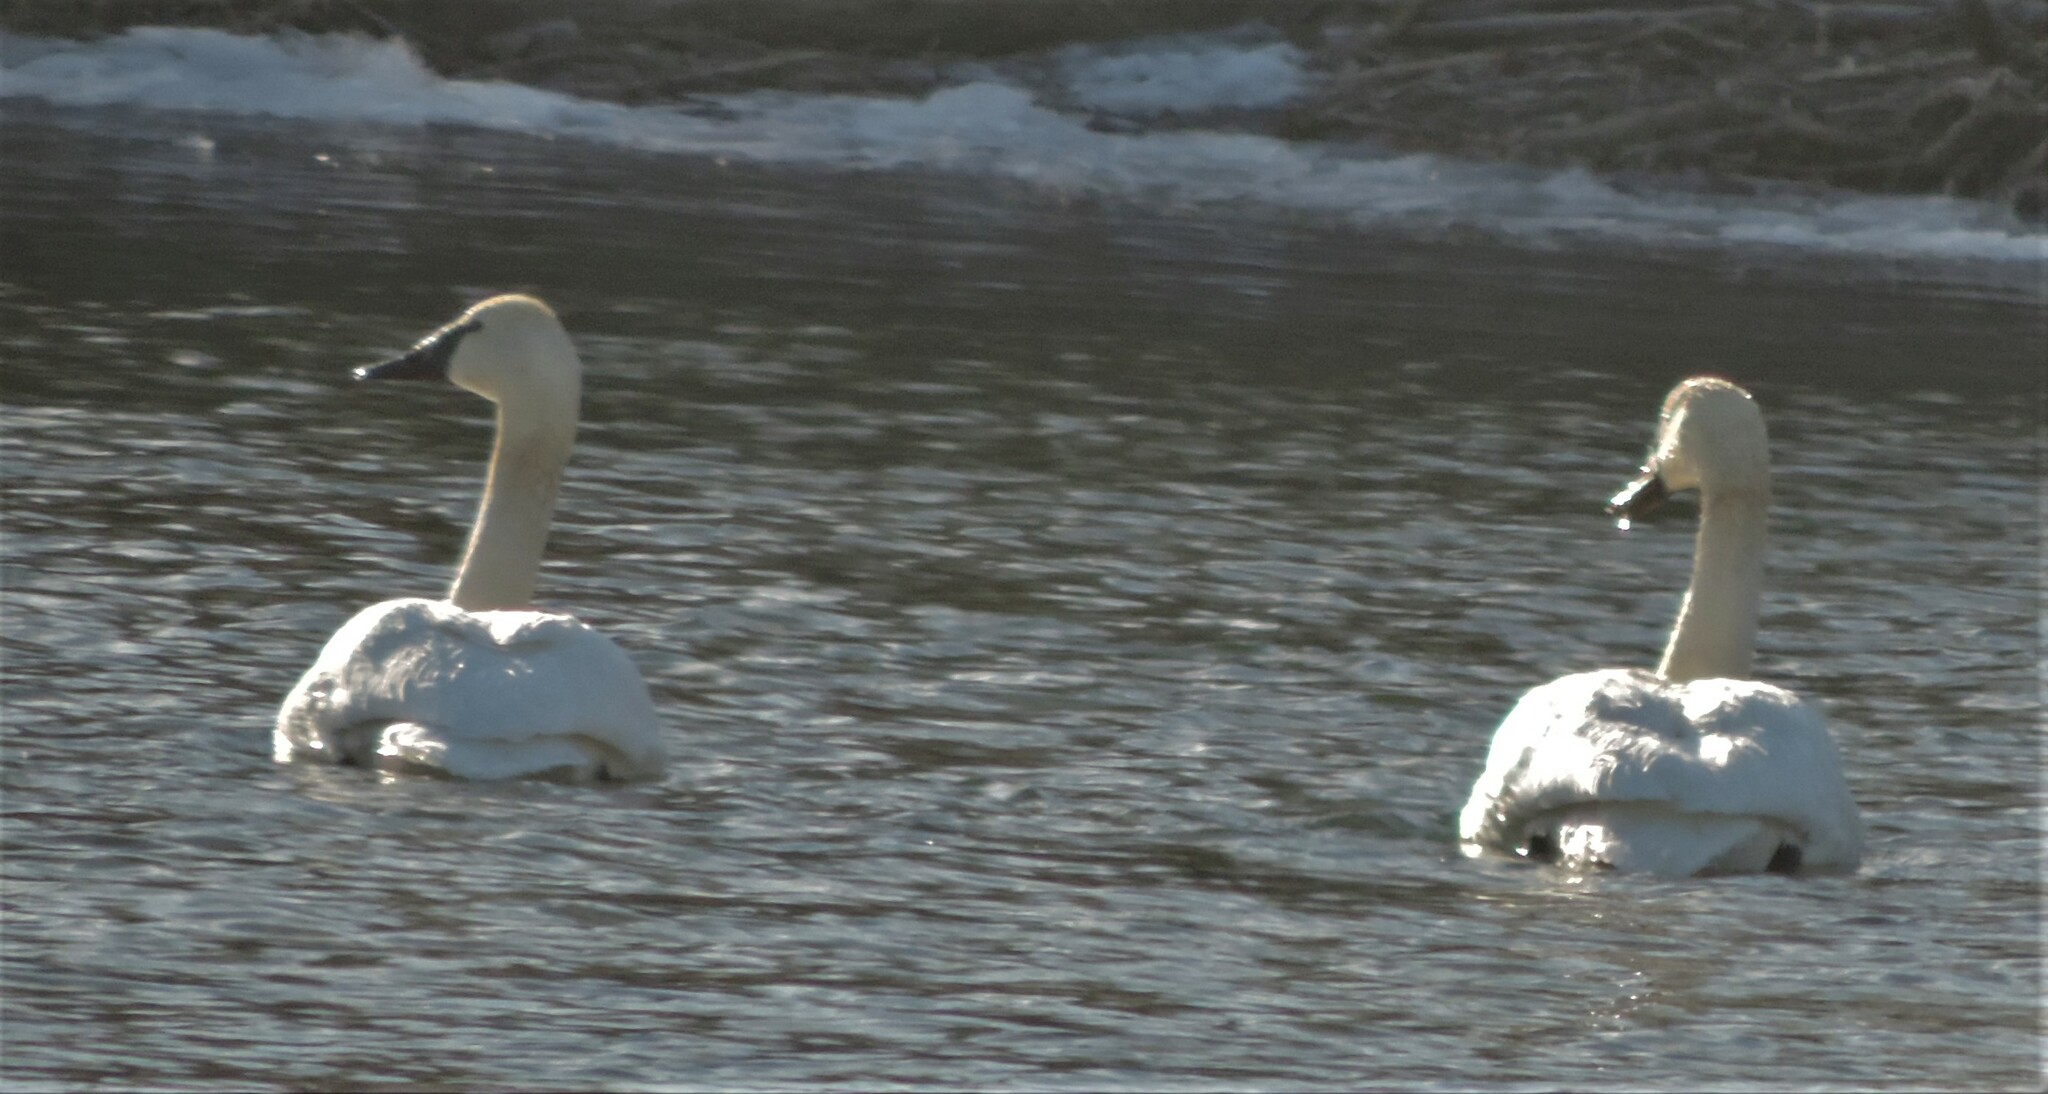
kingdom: Animalia
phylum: Chordata
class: Aves
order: Anseriformes
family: Anatidae
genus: Cygnus
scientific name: Cygnus buccinator
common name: Trumpeter swan
